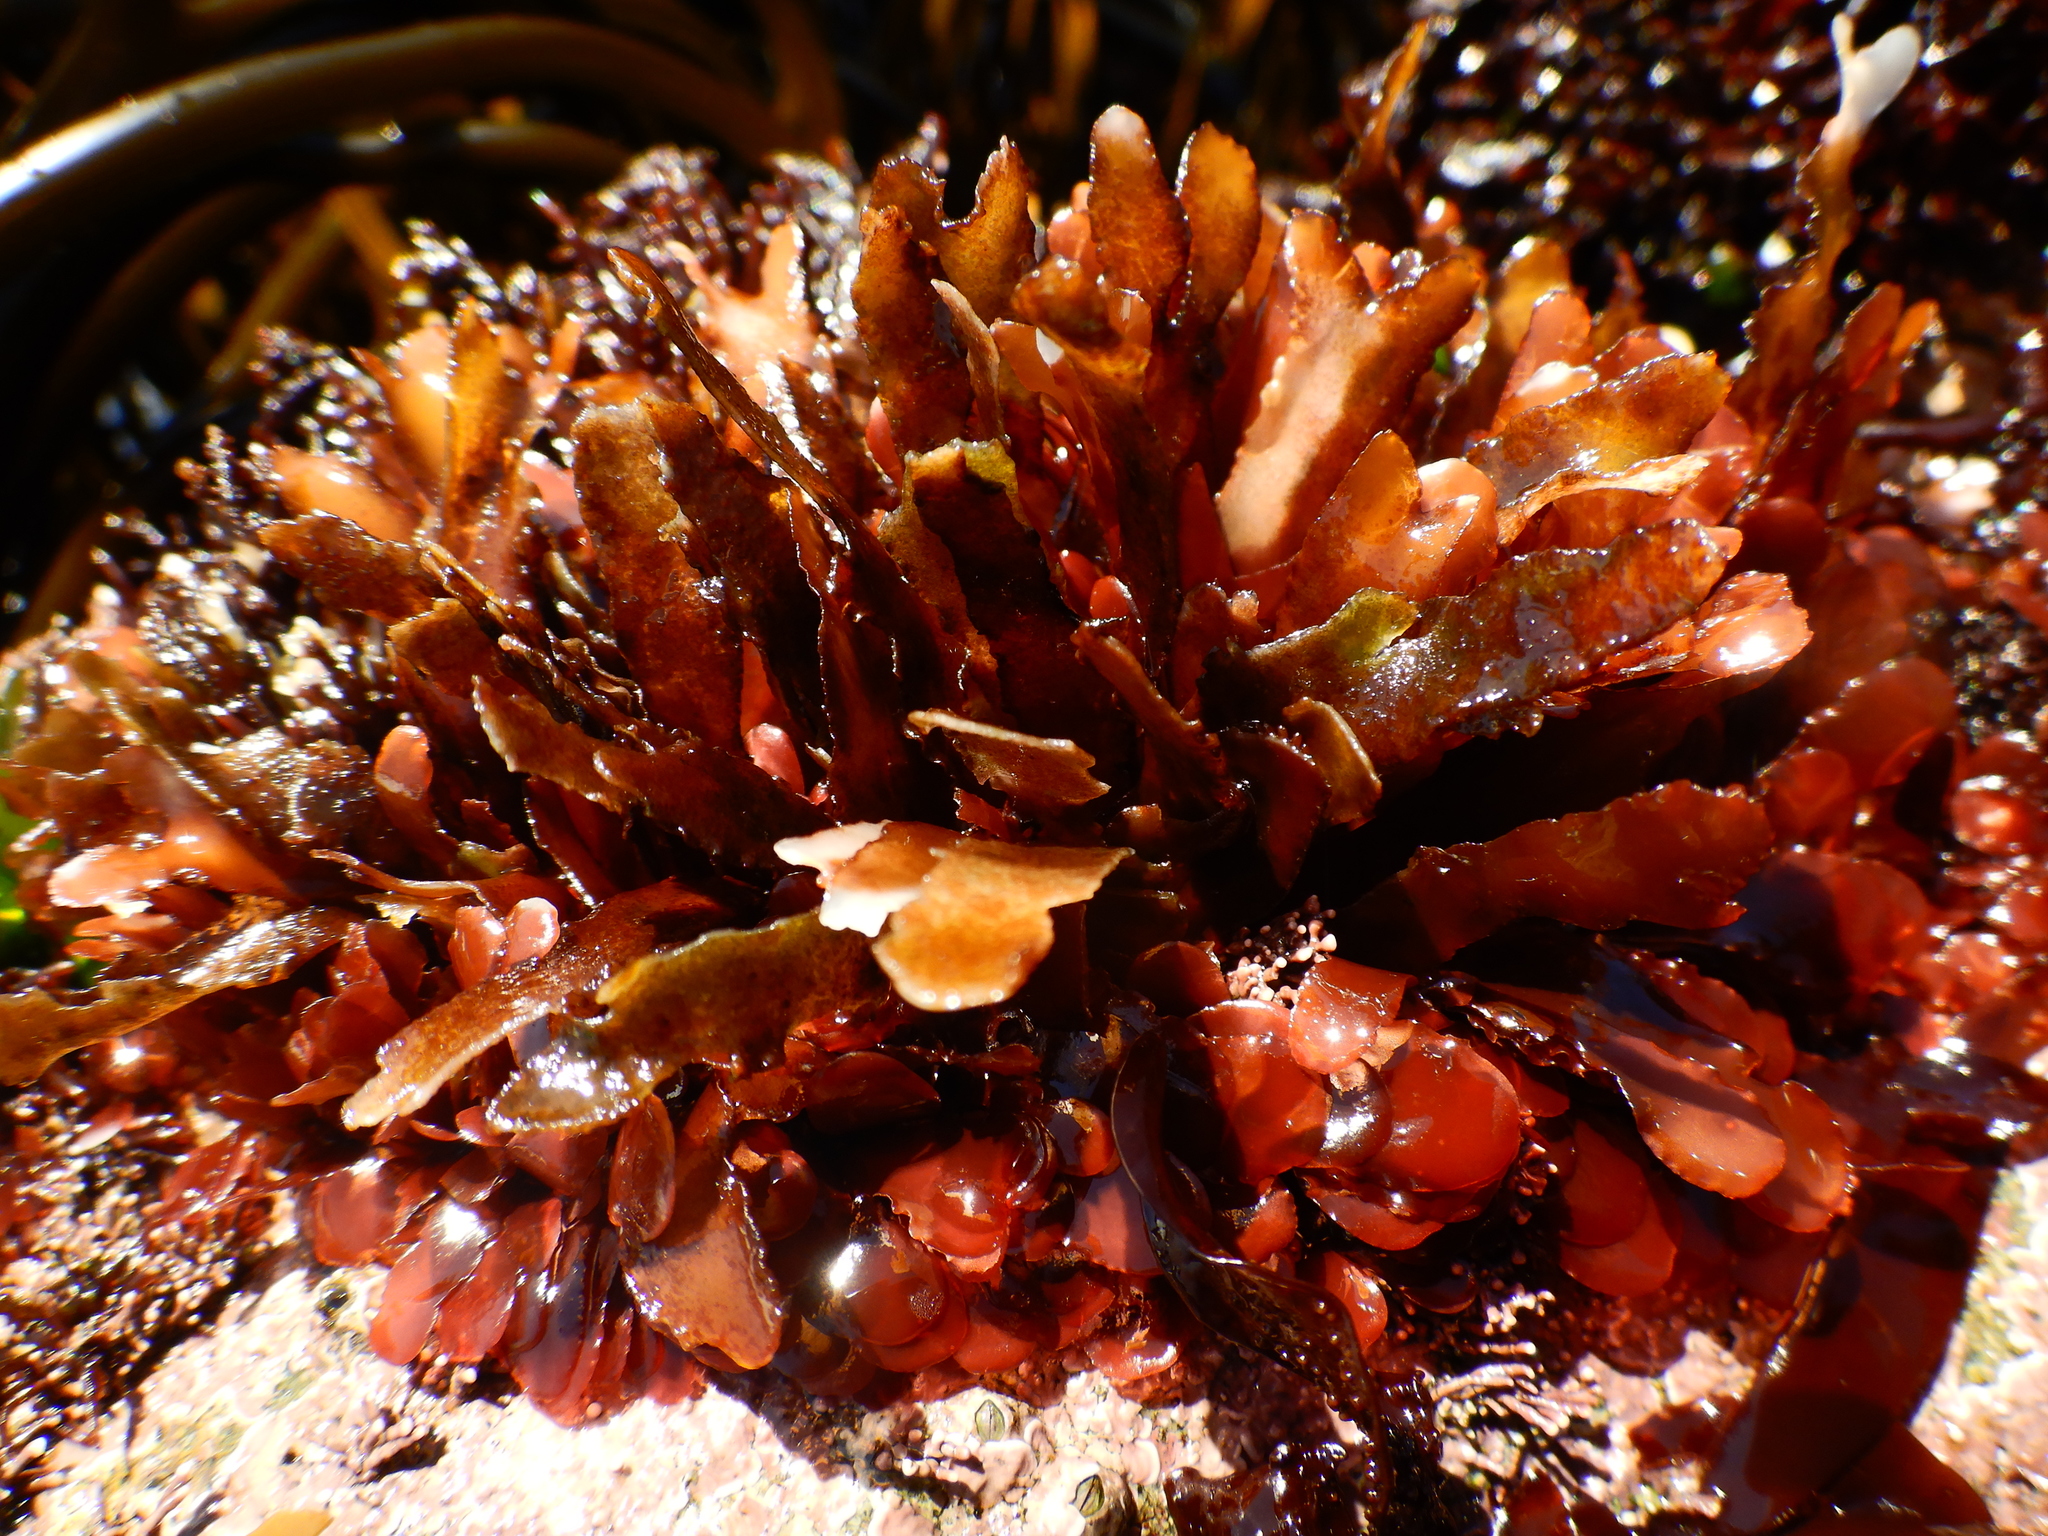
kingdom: Plantae
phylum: Rhodophyta
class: Florideophyceae
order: Gigartinales
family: Phyllophoraceae
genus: Schottera
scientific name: Schottera nicaeensis
